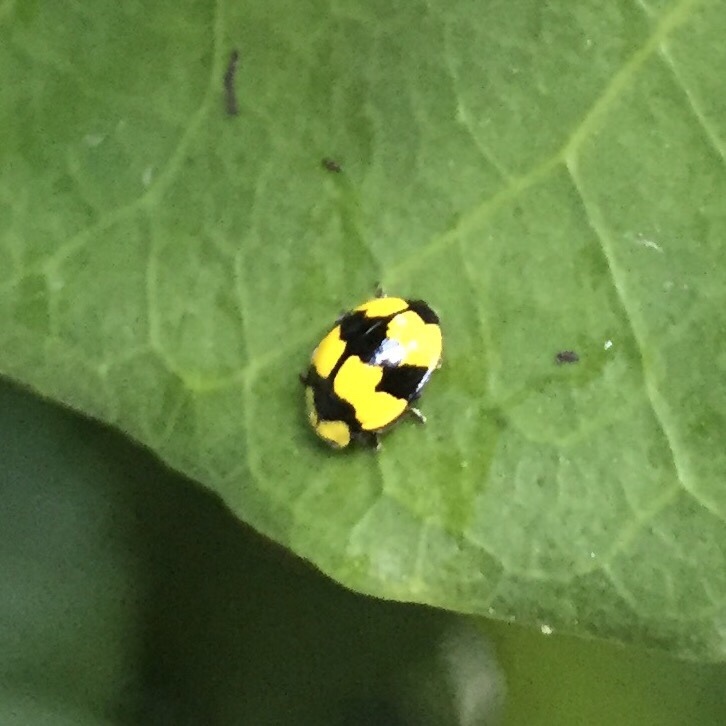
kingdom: Animalia
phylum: Arthropoda
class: Insecta
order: Coleoptera
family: Coccinellidae
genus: Illeis
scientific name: Illeis galbula
